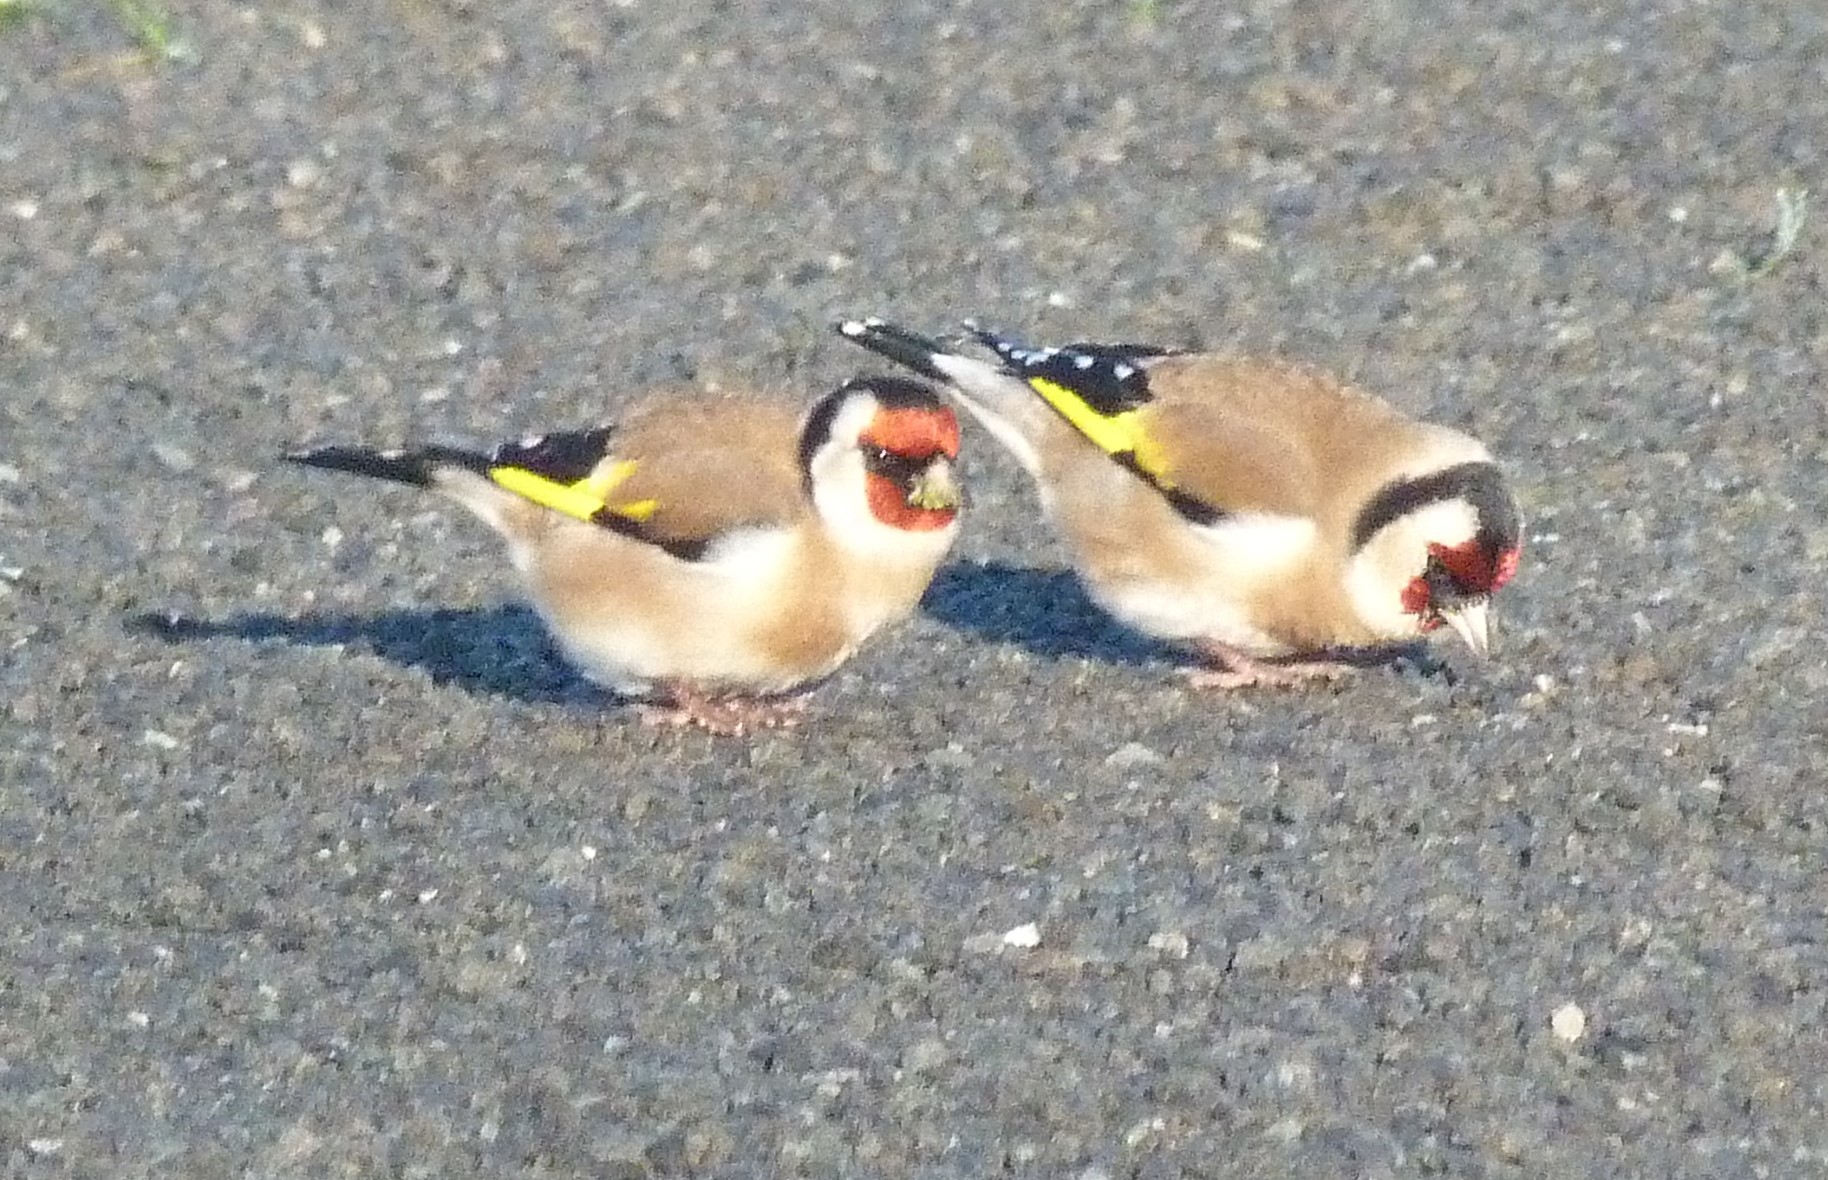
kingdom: Animalia
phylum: Chordata
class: Aves
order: Passeriformes
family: Fringillidae
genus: Carduelis
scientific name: Carduelis carduelis
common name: European goldfinch
